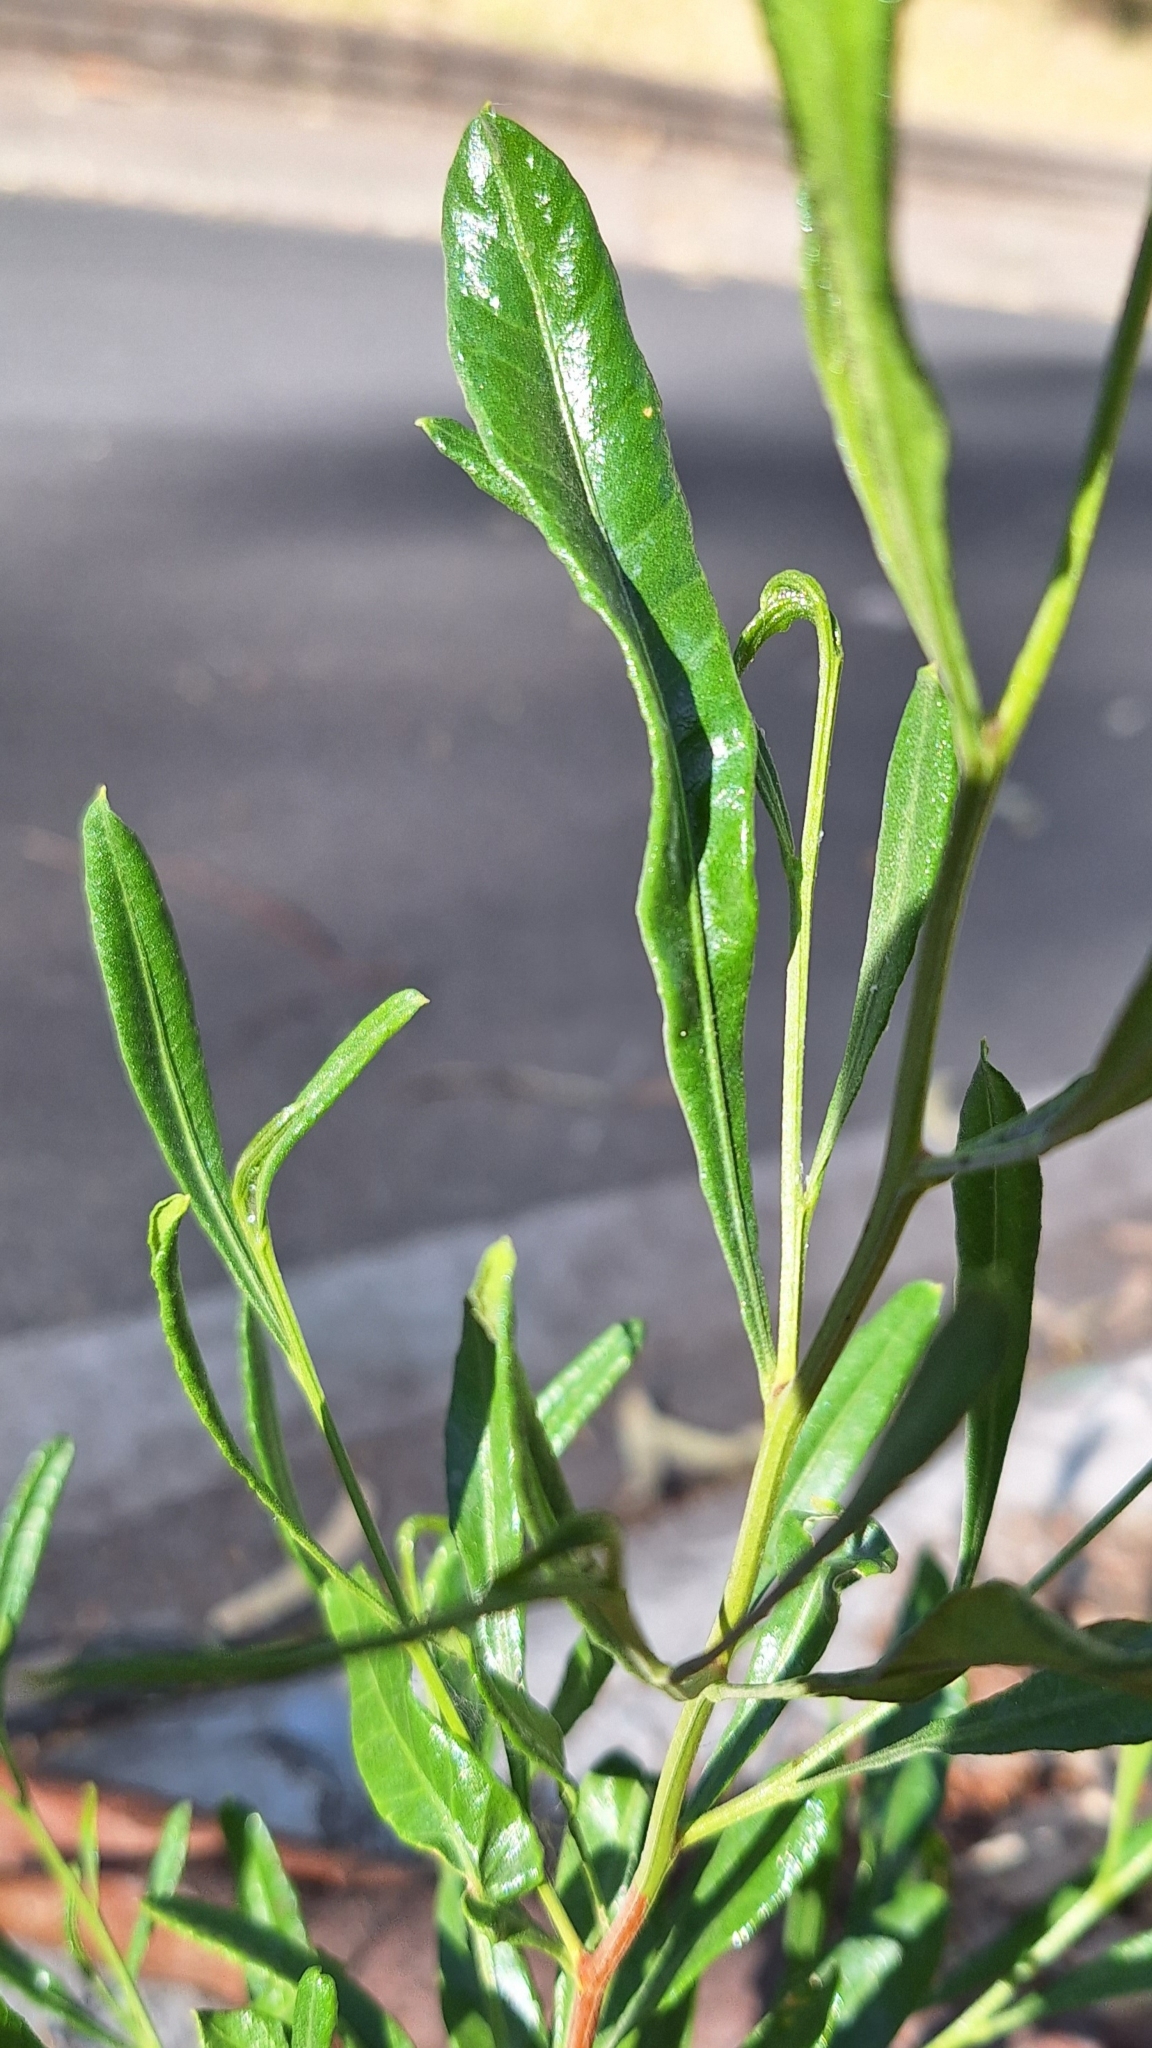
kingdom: Plantae
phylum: Tracheophyta
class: Magnoliopsida
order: Sapindales
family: Sapindaceae
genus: Dodonaea
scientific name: Dodonaea viscosa
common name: Hopbush
